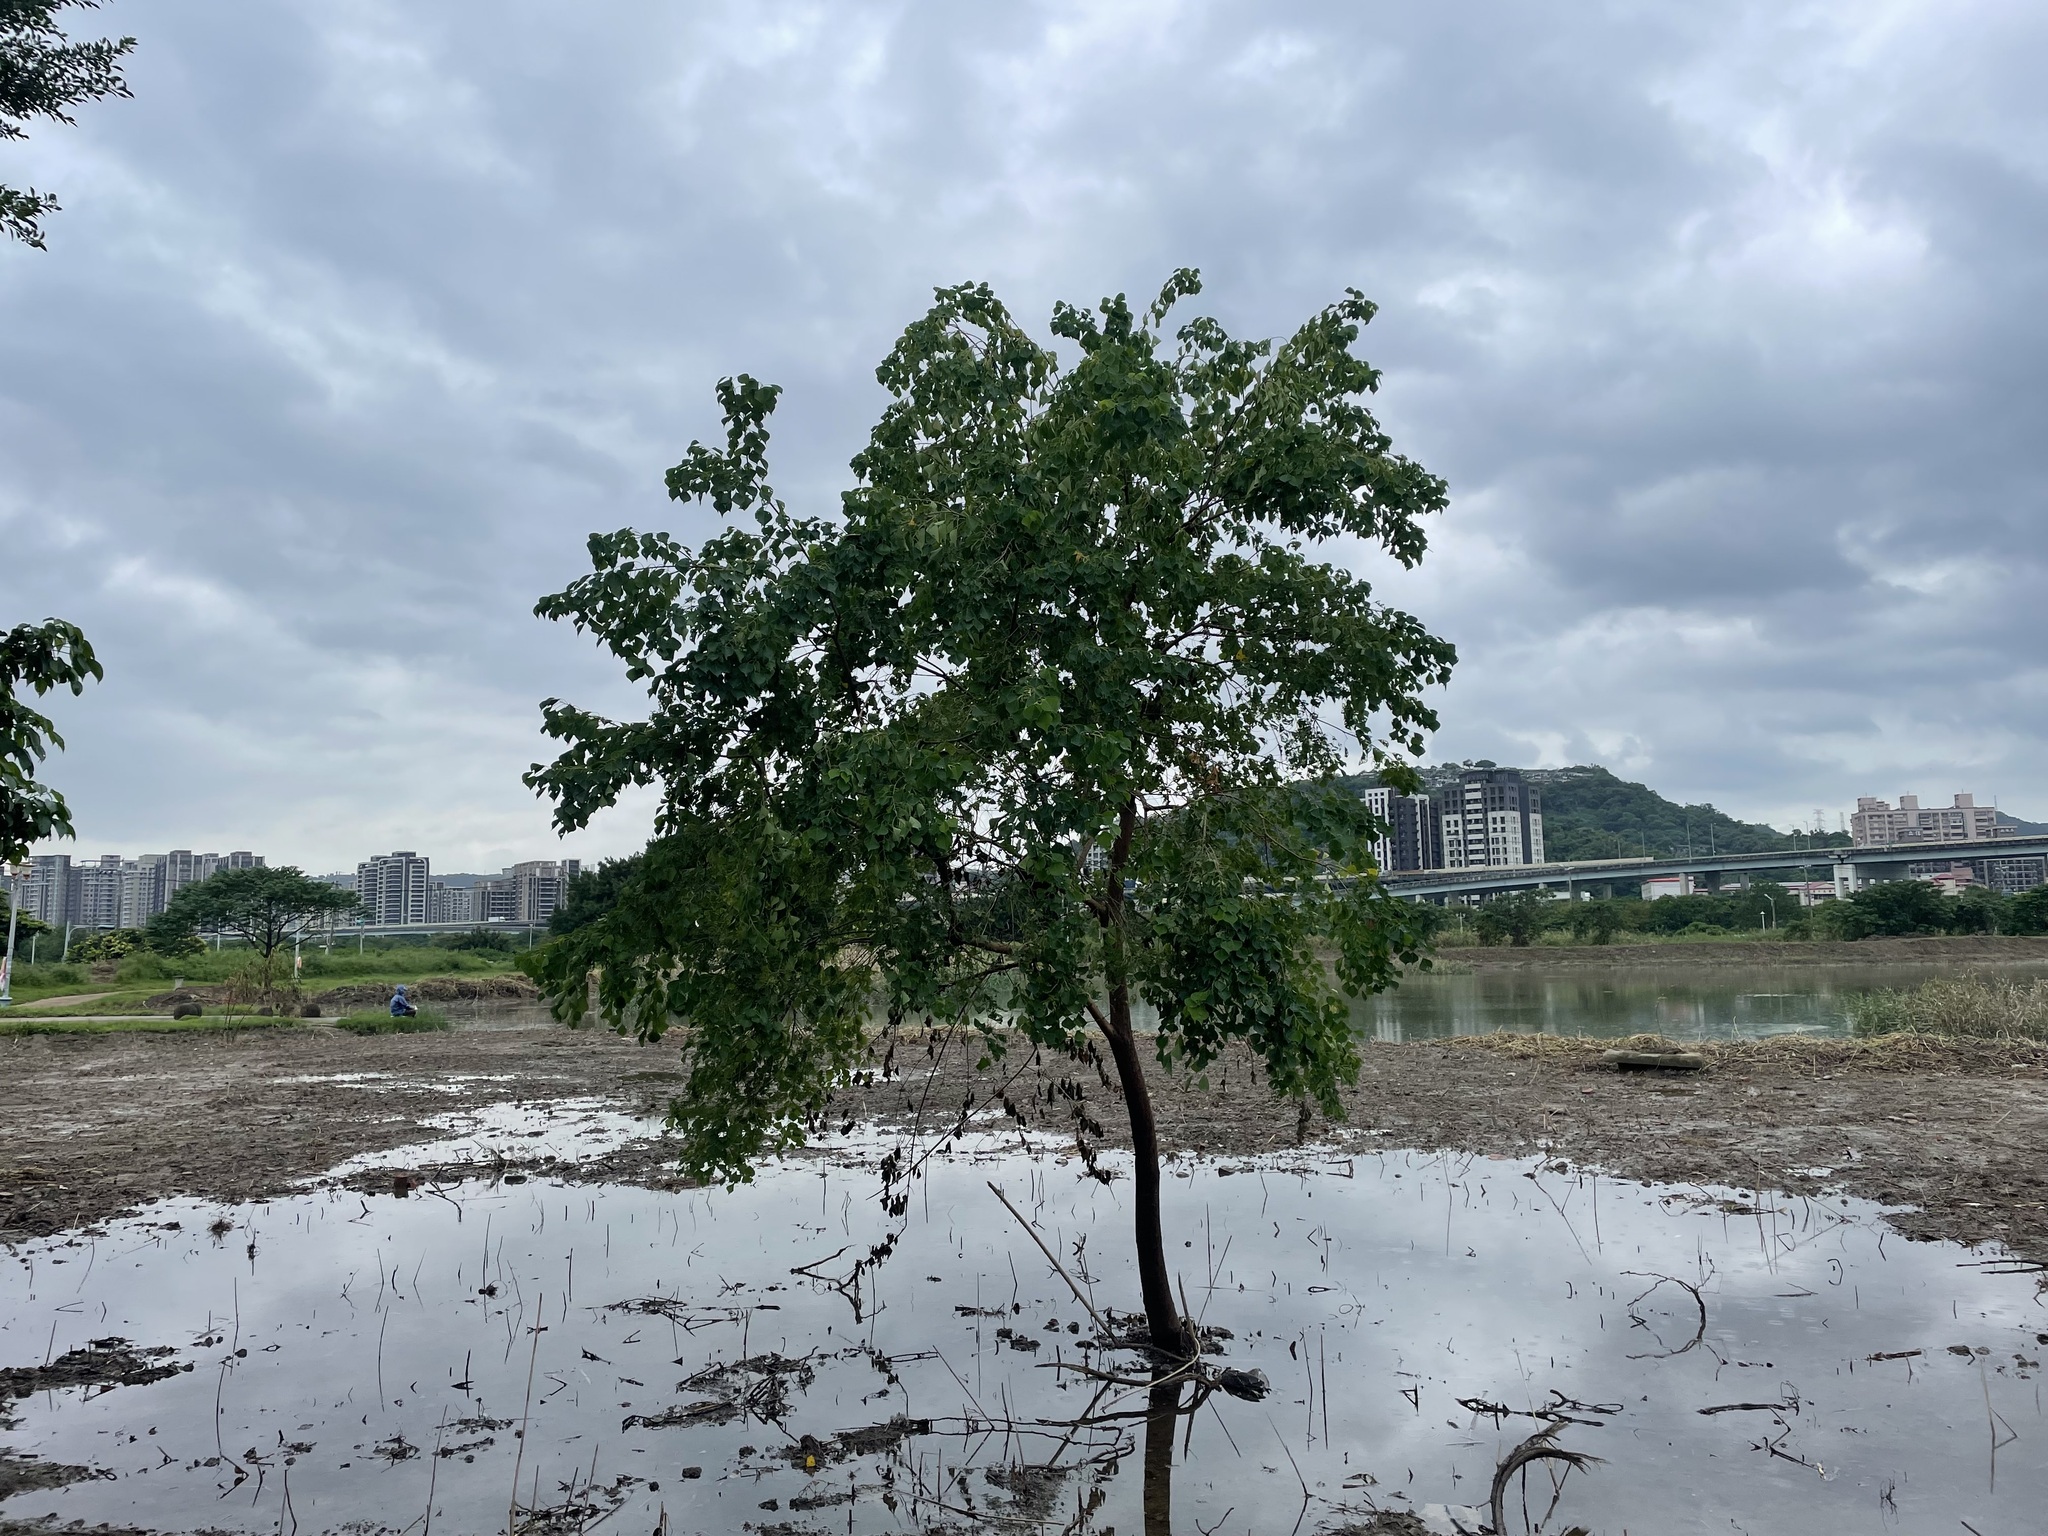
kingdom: Plantae
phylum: Tracheophyta
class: Magnoliopsida
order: Malpighiales
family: Euphorbiaceae
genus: Triadica
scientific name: Triadica sebifera
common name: Chinese tallow
